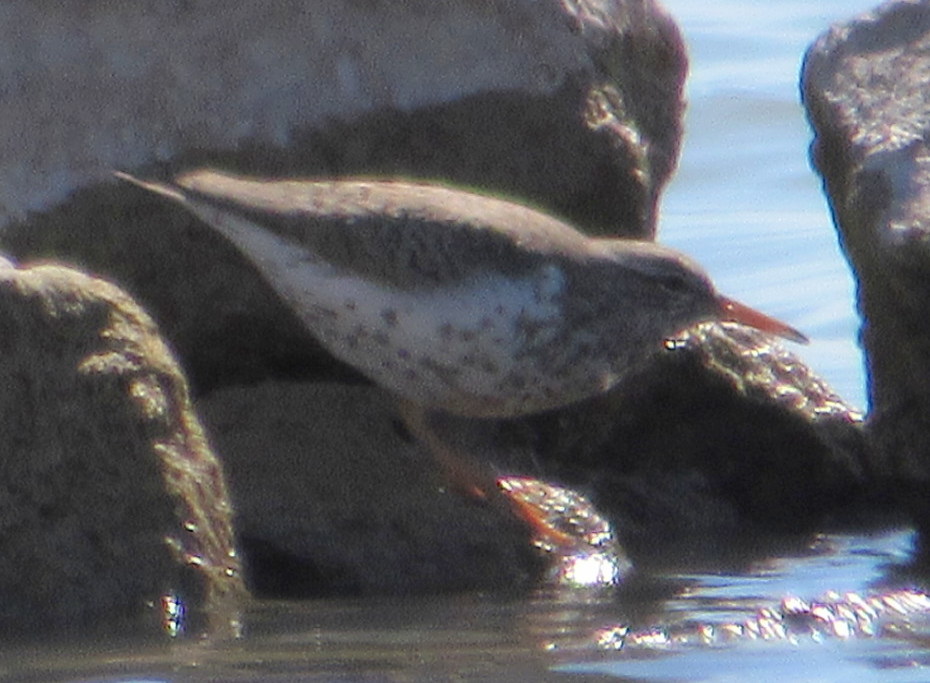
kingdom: Animalia
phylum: Chordata
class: Aves
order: Charadriiformes
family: Scolopacidae
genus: Actitis
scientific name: Actitis macularius
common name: Spotted sandpiper
